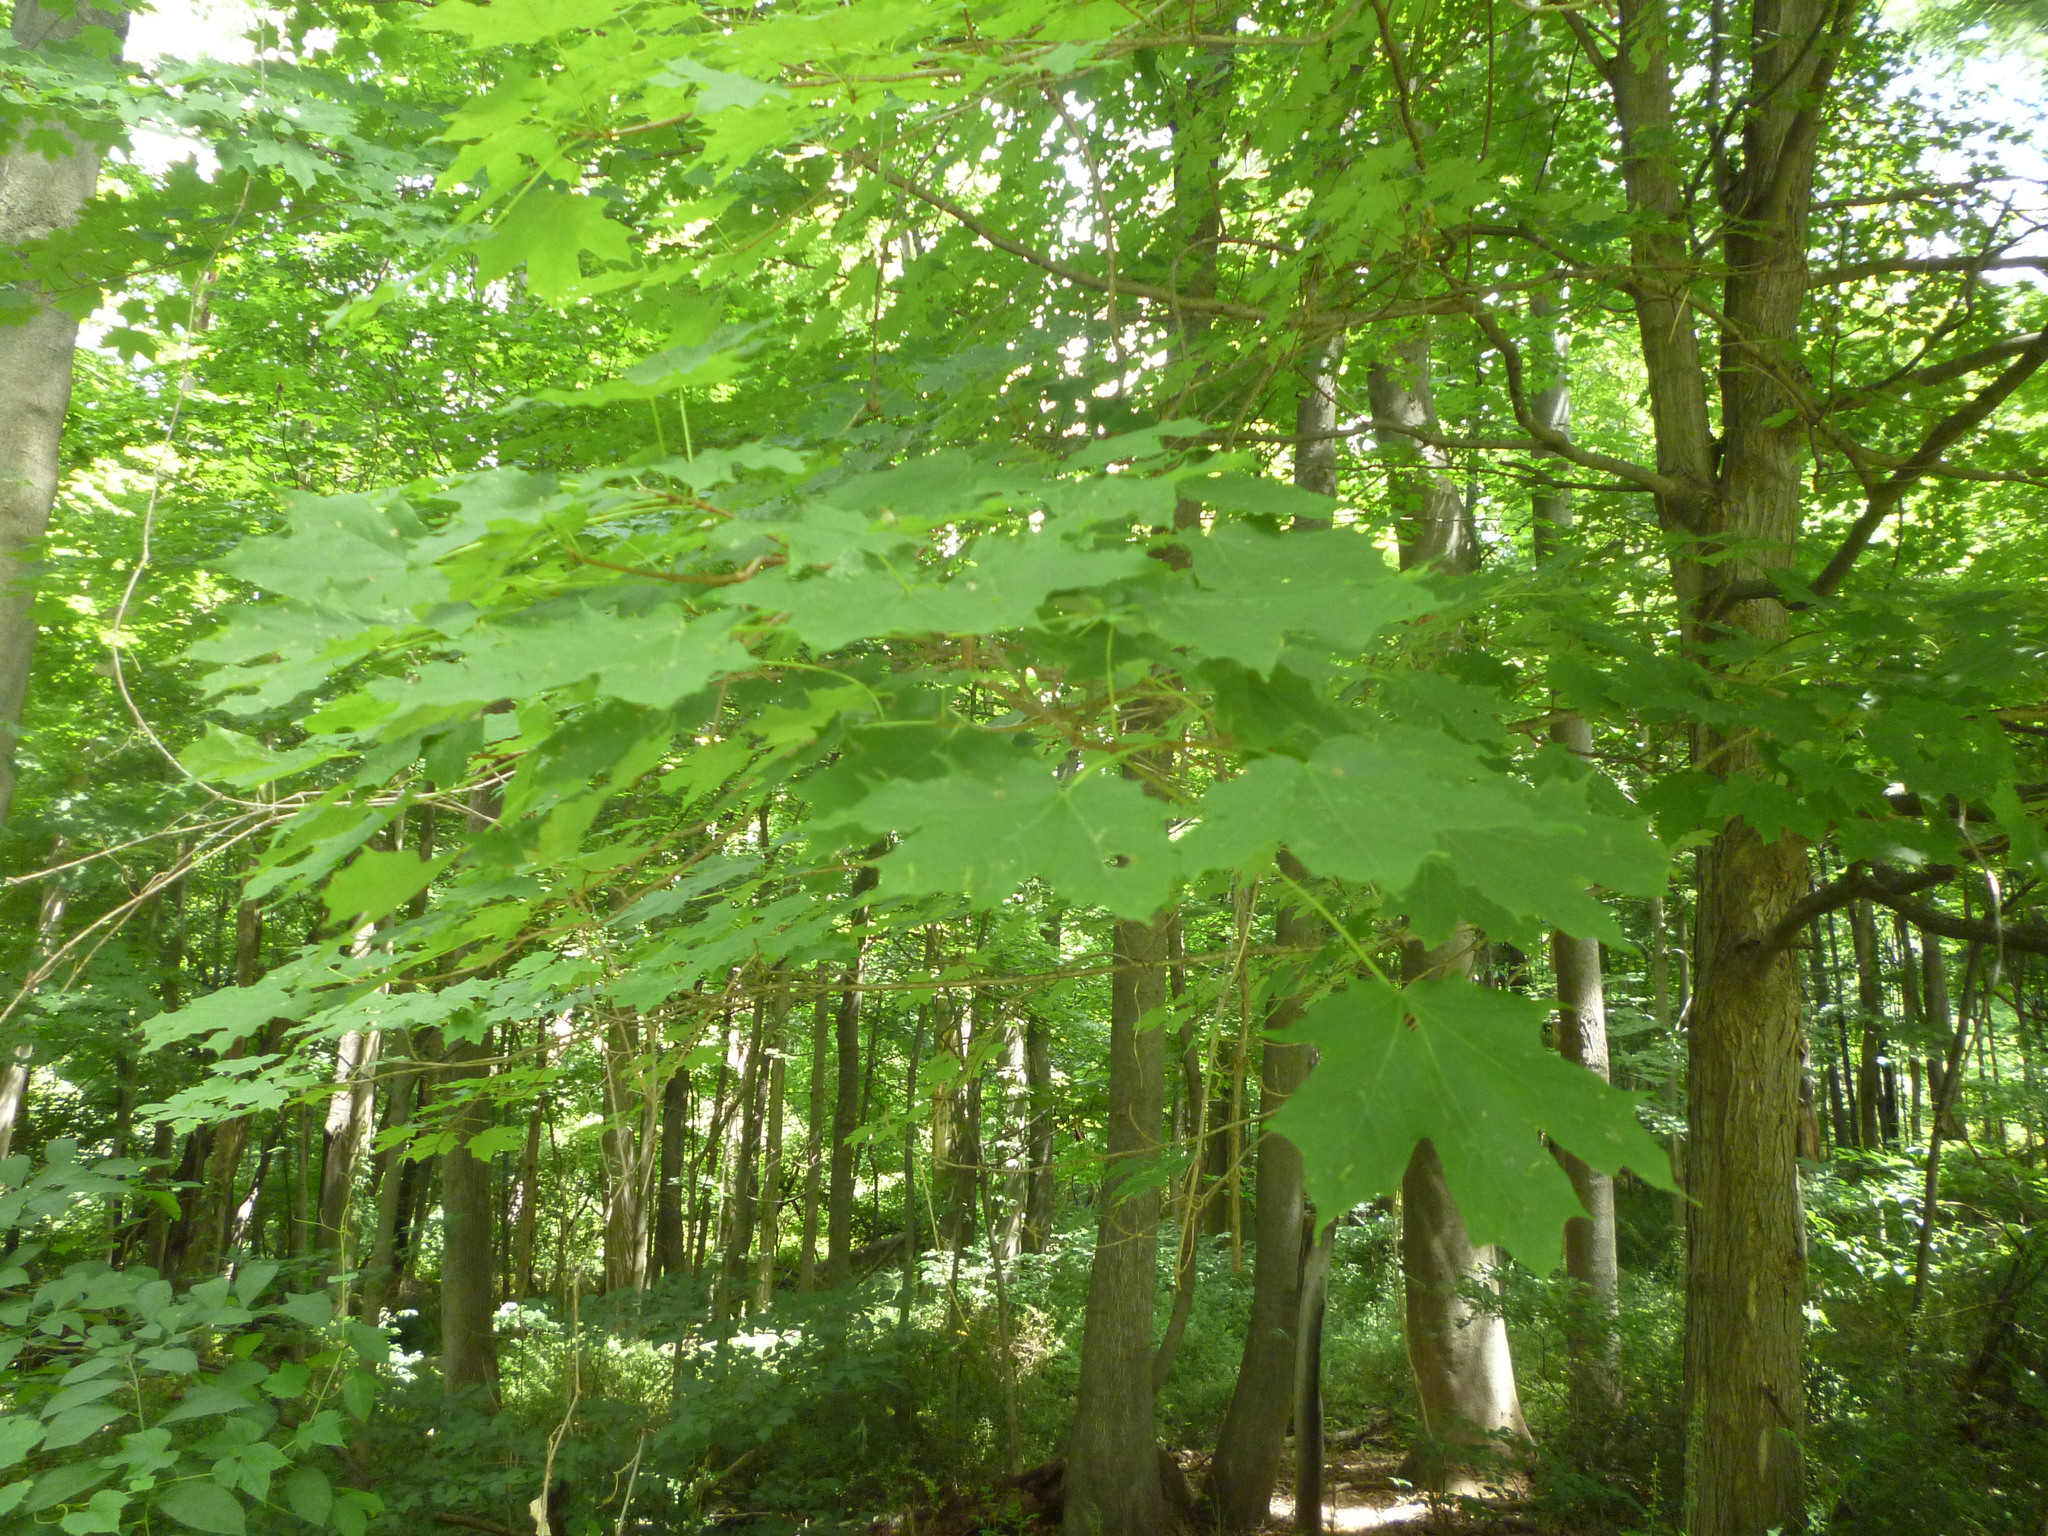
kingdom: Plantae
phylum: Tracheophyta
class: Magnoliopsida
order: Sapindales
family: Sapindaceae
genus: Acer
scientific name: Acer saccharum
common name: Sugar maple
